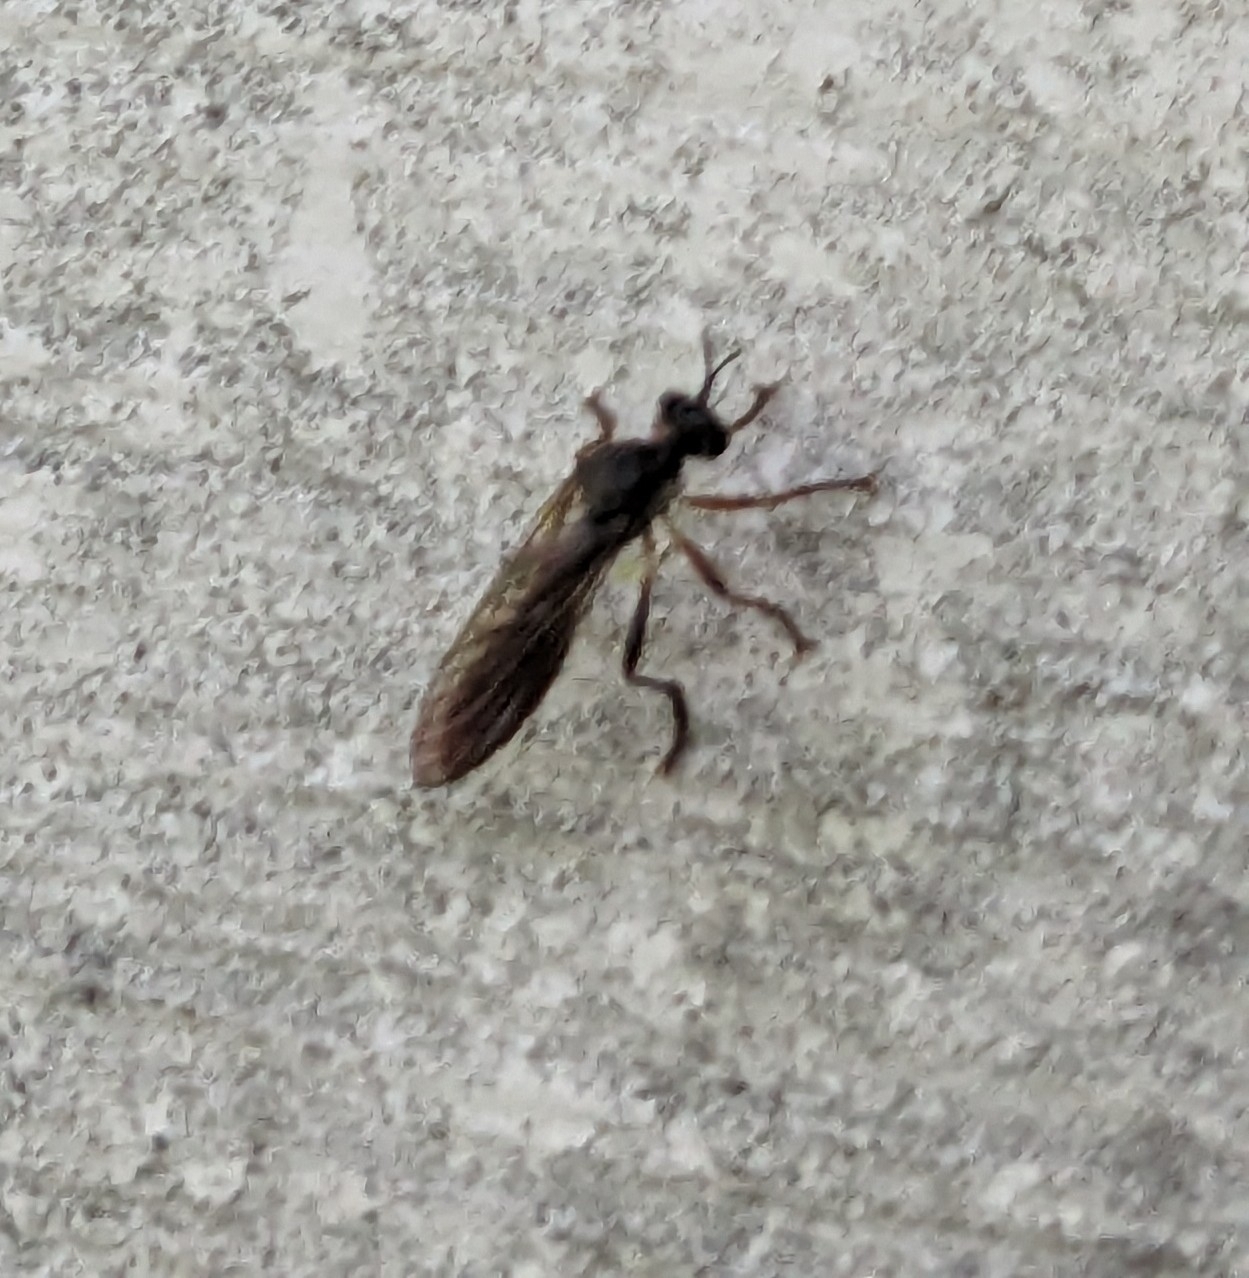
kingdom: Animalia
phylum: Arthropoda
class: Insecta
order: Diptera
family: Asilidae
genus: Dioctria
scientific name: Dioctria hyalipennis
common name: Stripe-legged robberfly
